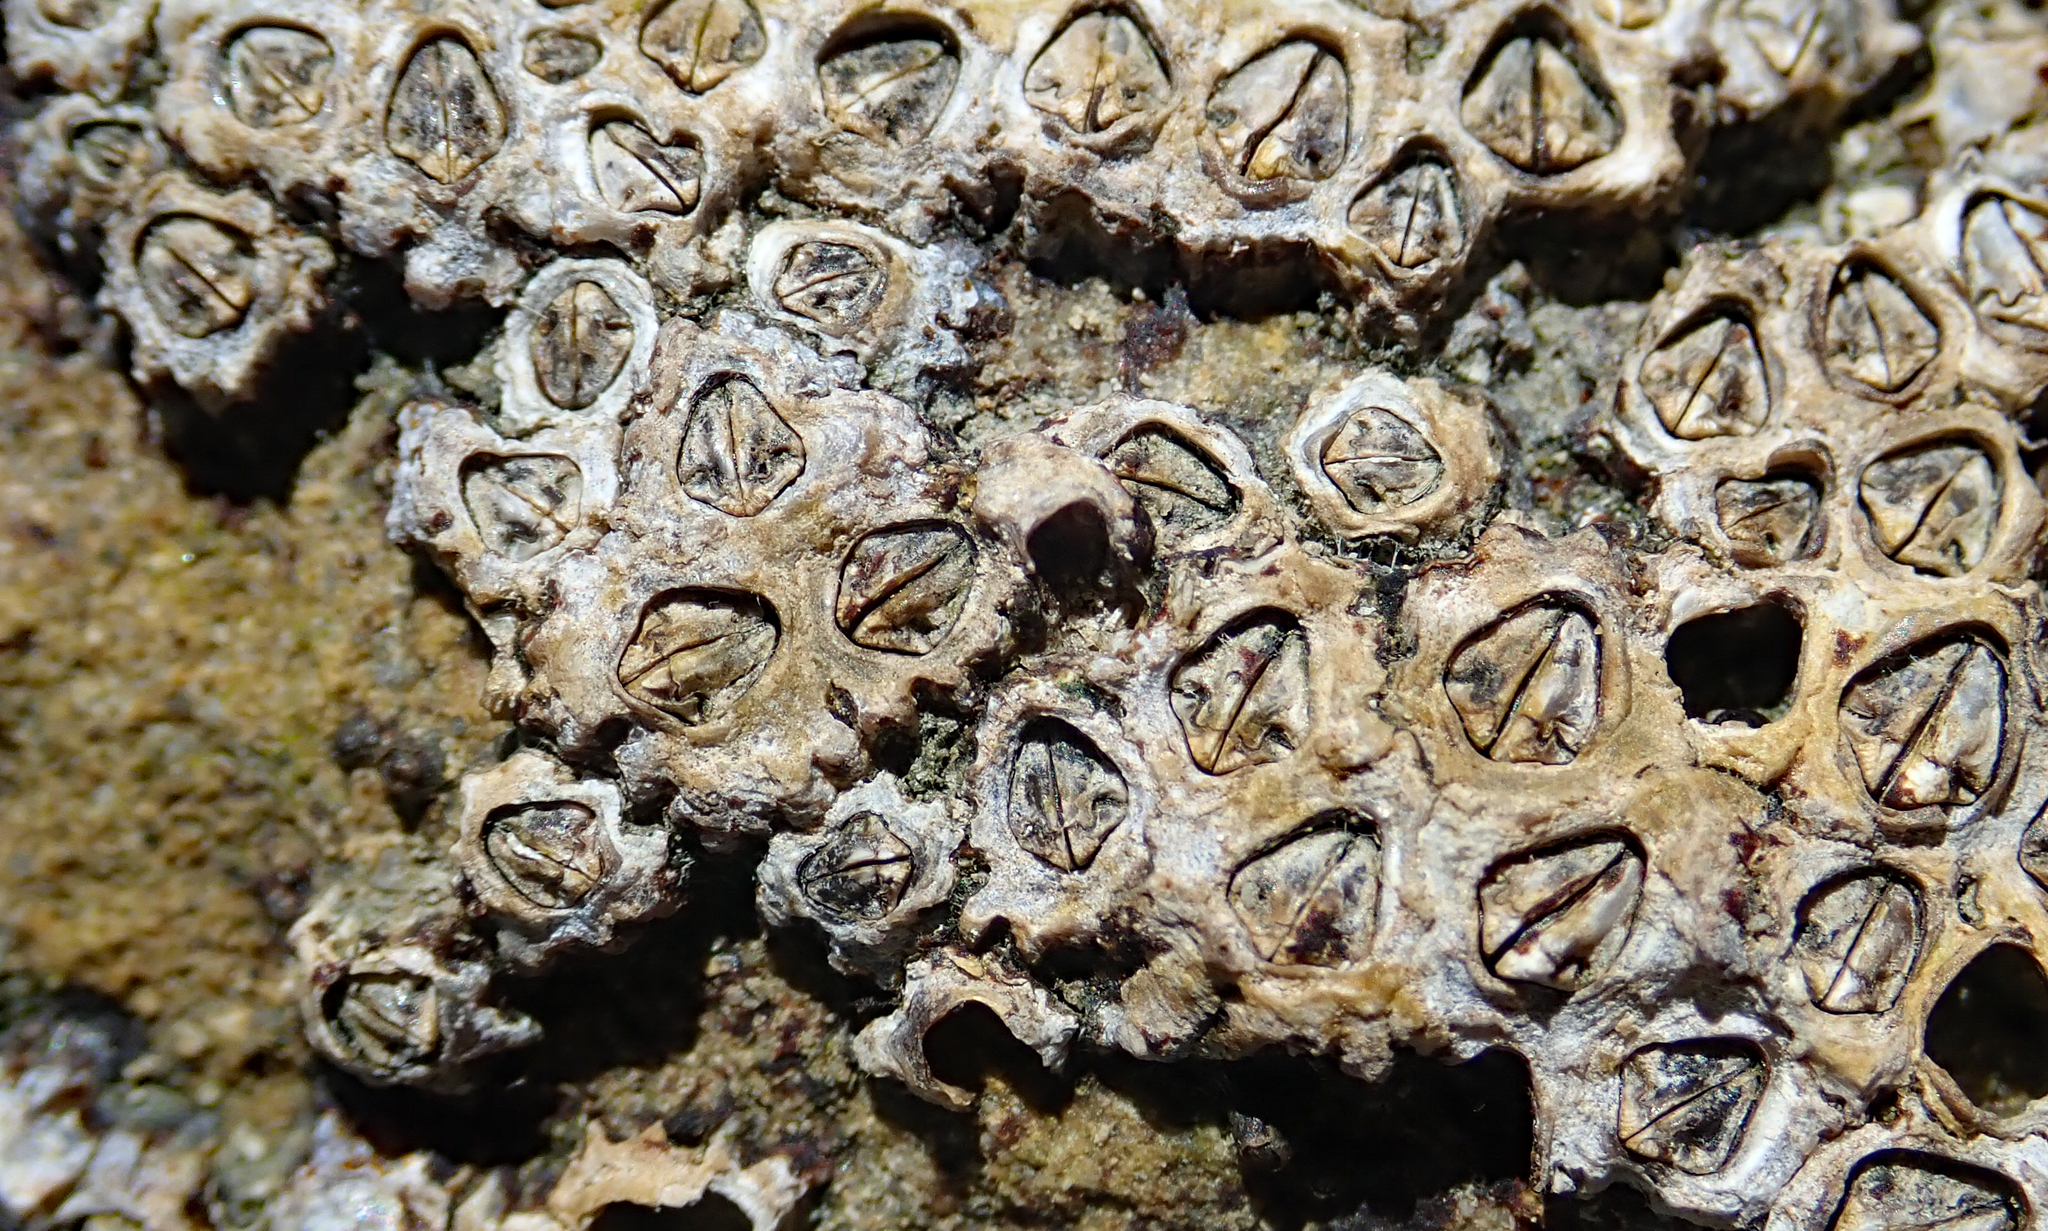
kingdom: Animalia
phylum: Arthropoda
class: Maxillopoda
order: Sessilia
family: Chthamalidae
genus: Chamaesipho
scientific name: Chamaesipho columna
